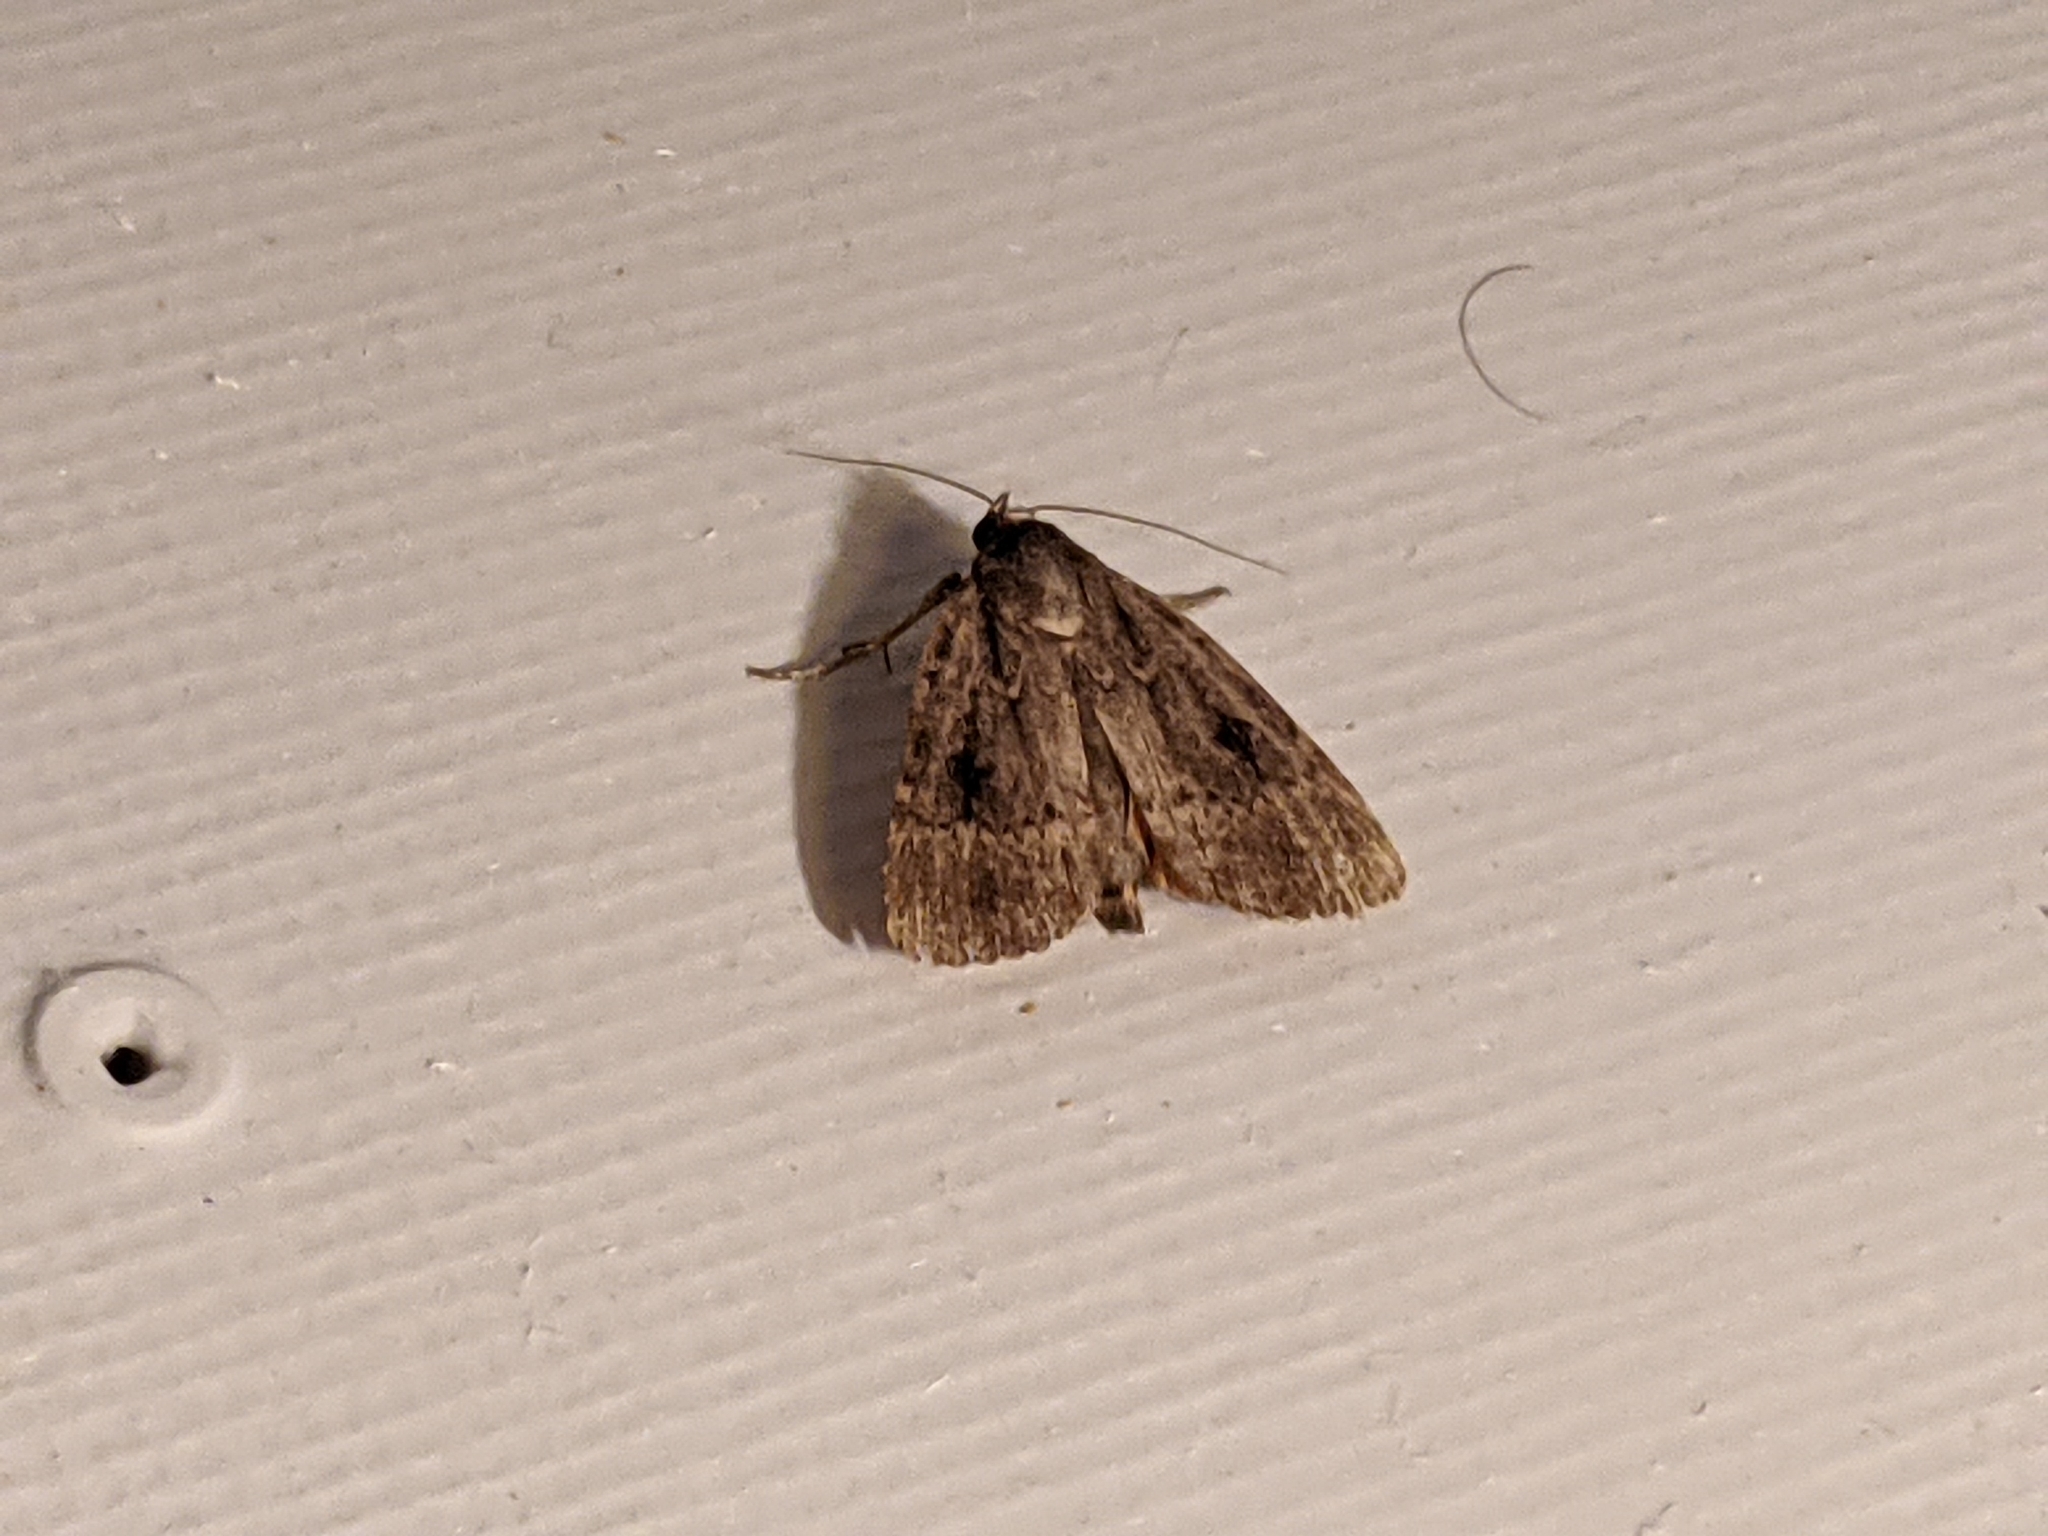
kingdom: Animalia
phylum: Arthropoda
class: Insecta
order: Lepidoptera
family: Noctuidae
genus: Amphipyra
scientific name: Amphipyra pyramidea
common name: Copper underwing
